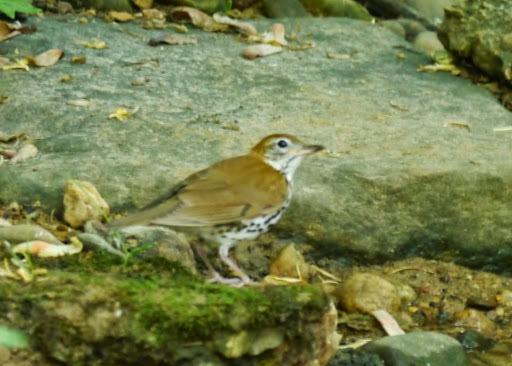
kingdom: Animalia
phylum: Chordata
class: Aves
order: Passeriformes
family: Turdidae
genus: Hylocichla
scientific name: Hylocichla mustelina
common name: Wood thrush
